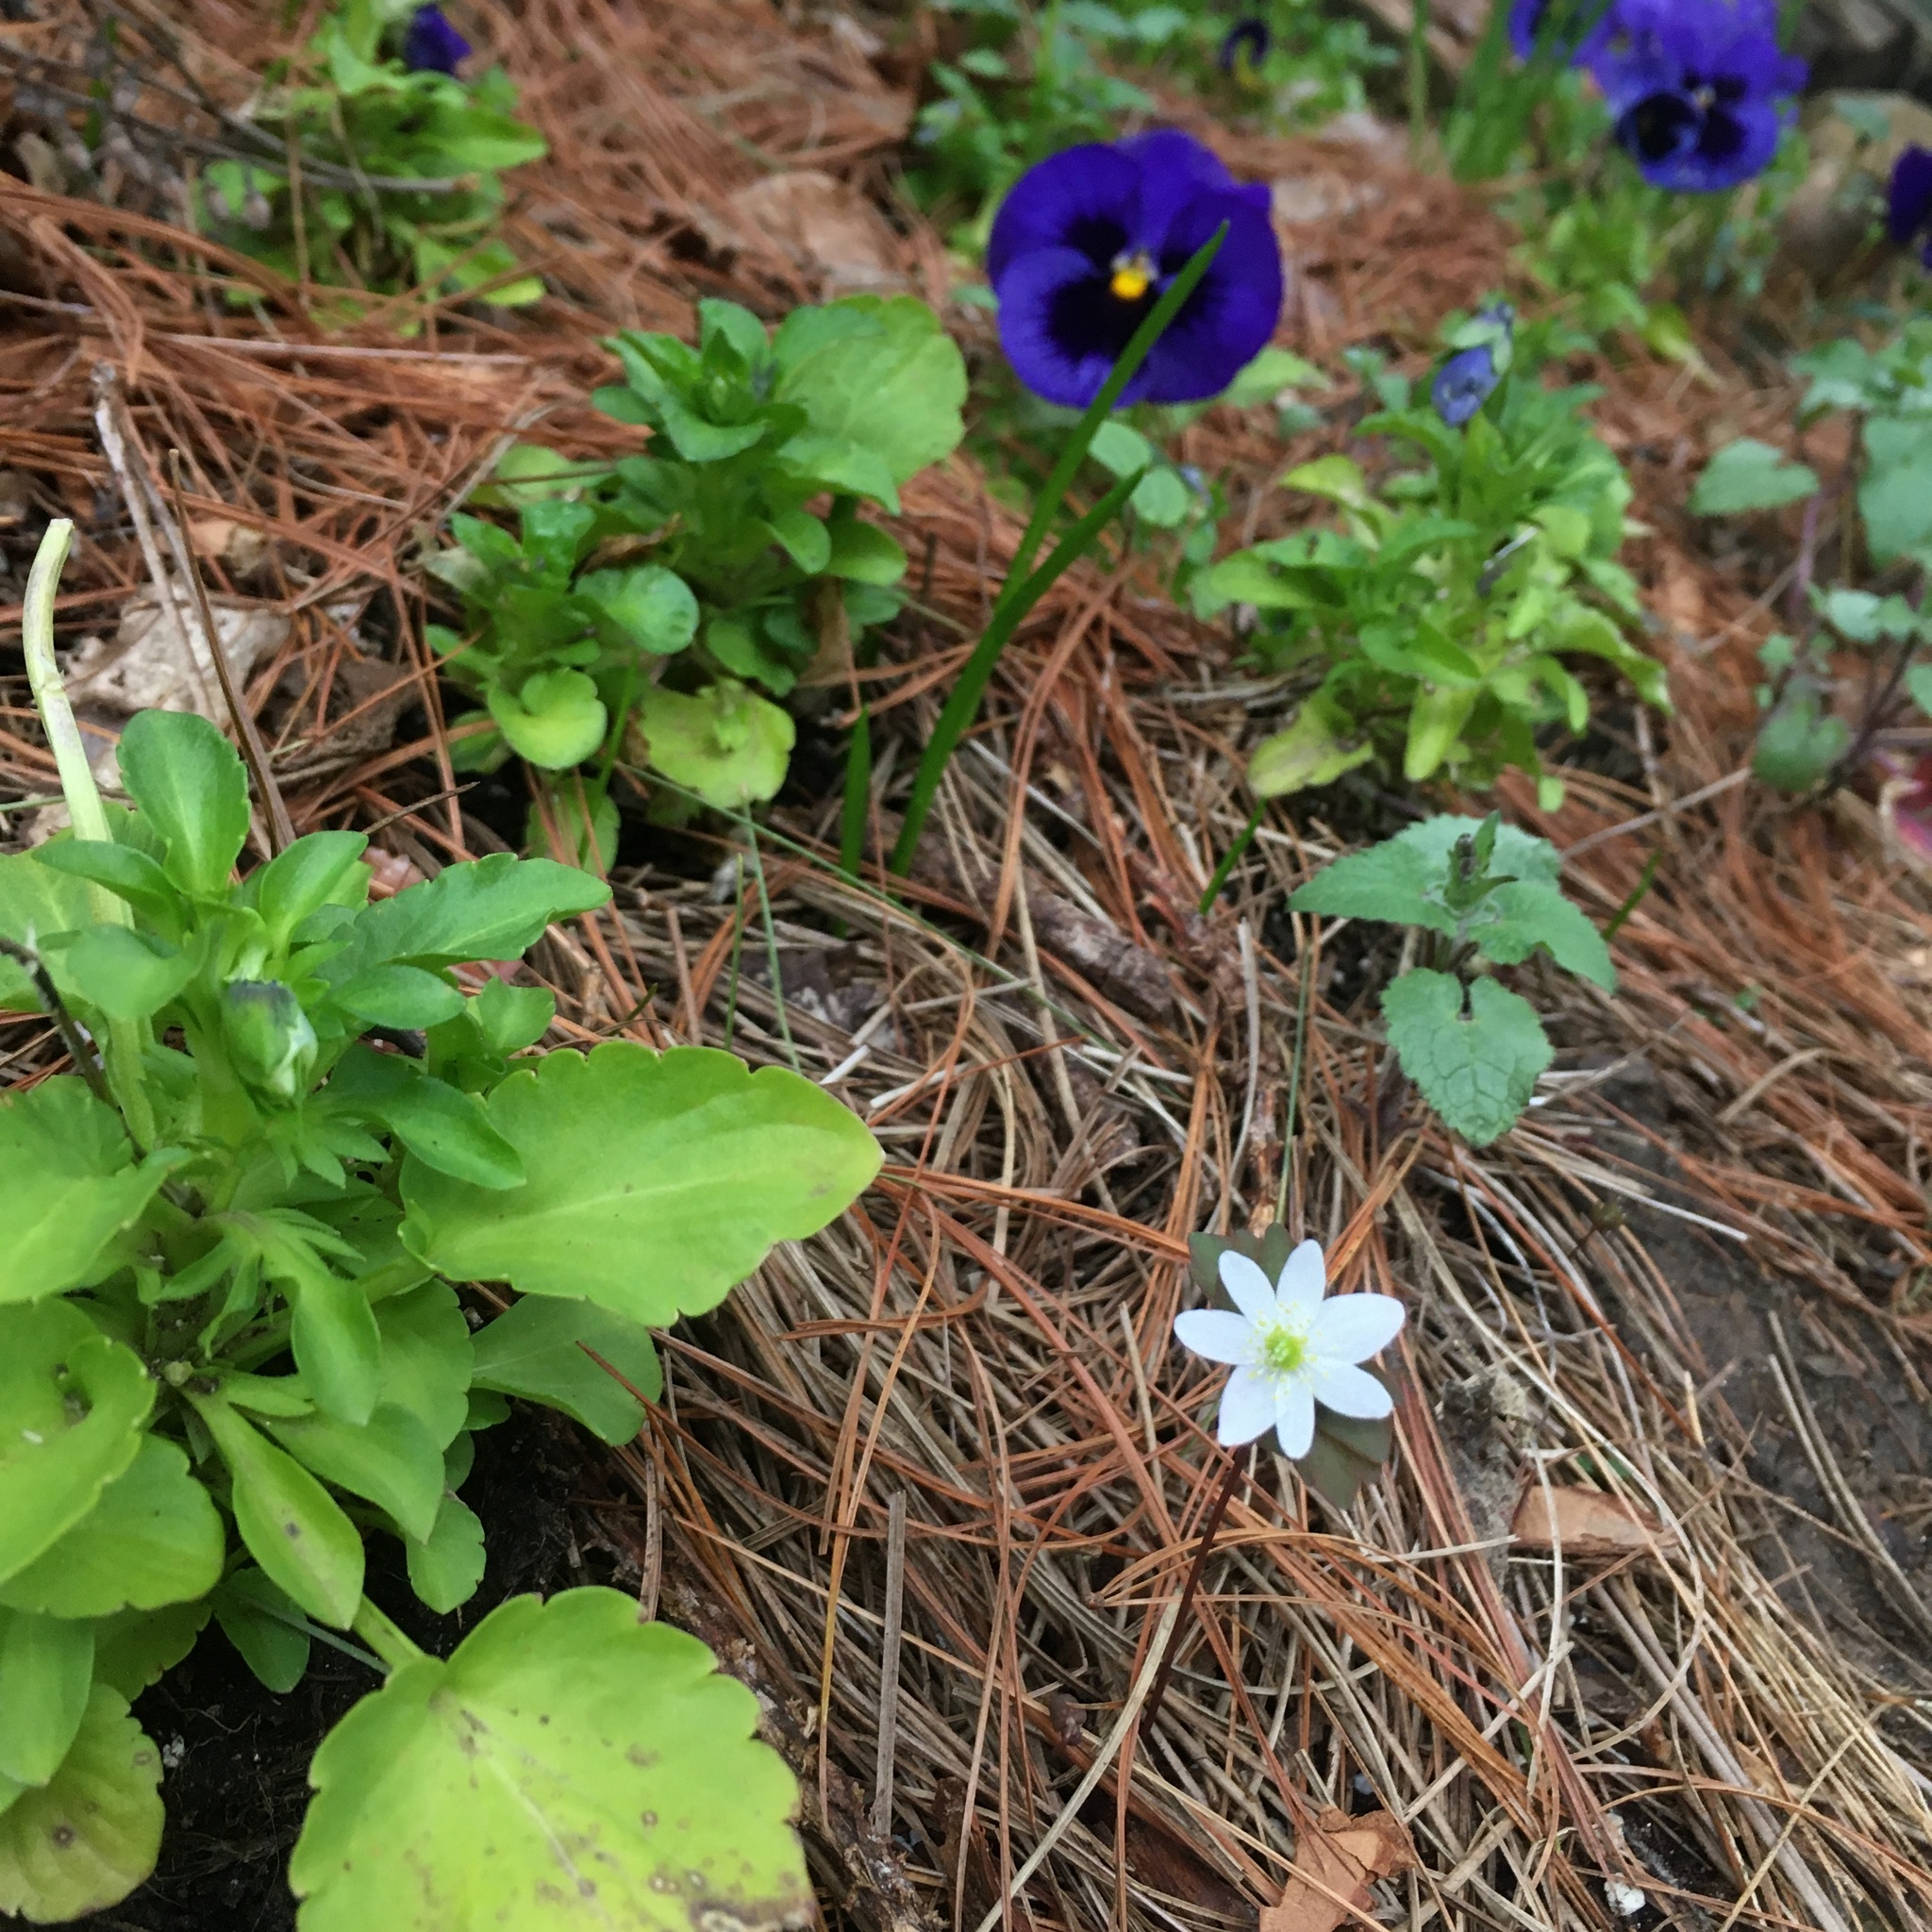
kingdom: Plantae
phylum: Tracheophyta
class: Magnoliopsida
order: Ranunculales
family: Ranunculaceae
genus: Thalictrum
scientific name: Thalictrum thalictroides
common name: Rue-anemone
